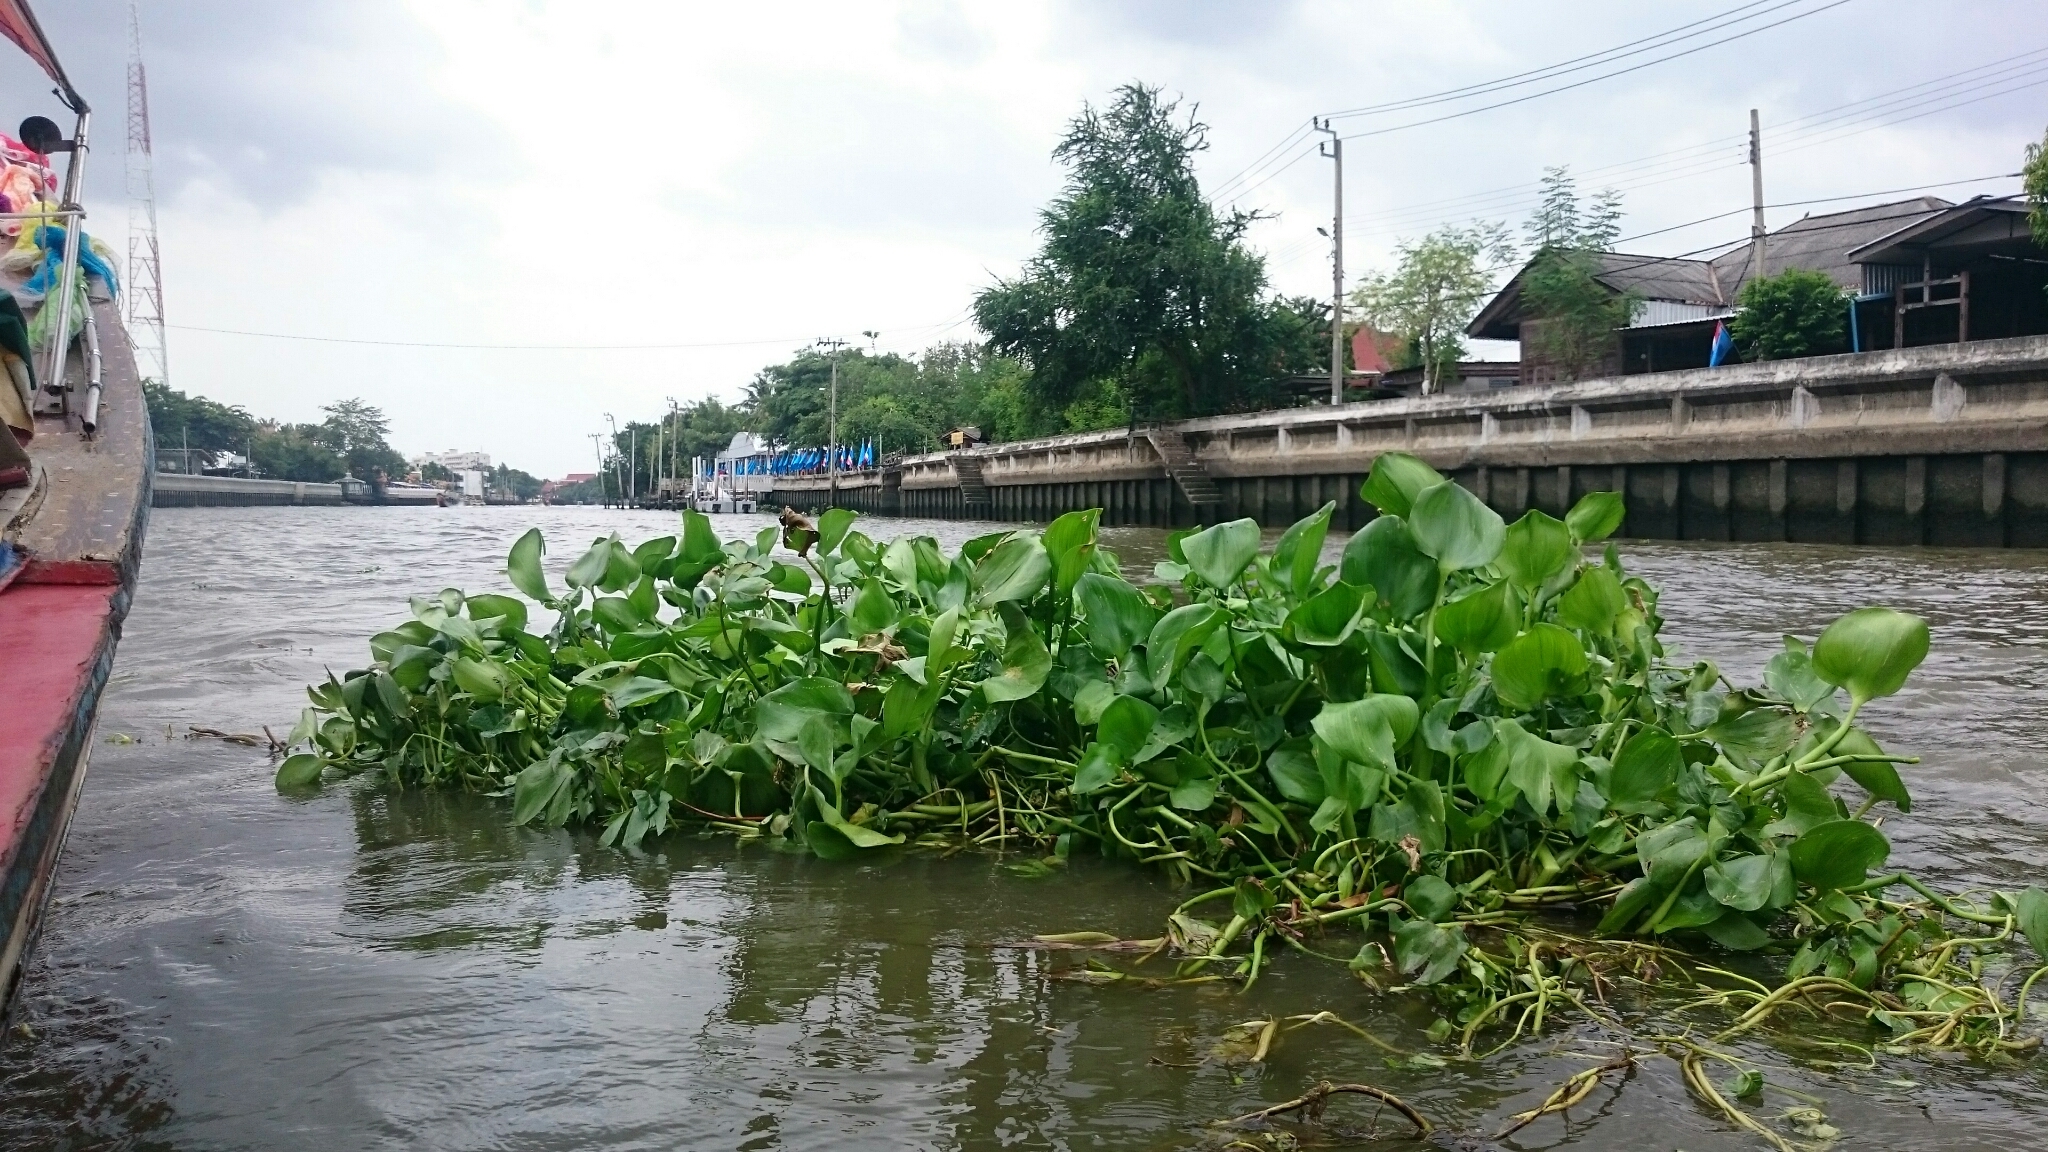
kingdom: Plantae
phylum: Tracheophyta
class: Liliopsida
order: Commelinales
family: Pontederiaceae
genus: Pontederia
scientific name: Pontederia crassipes
